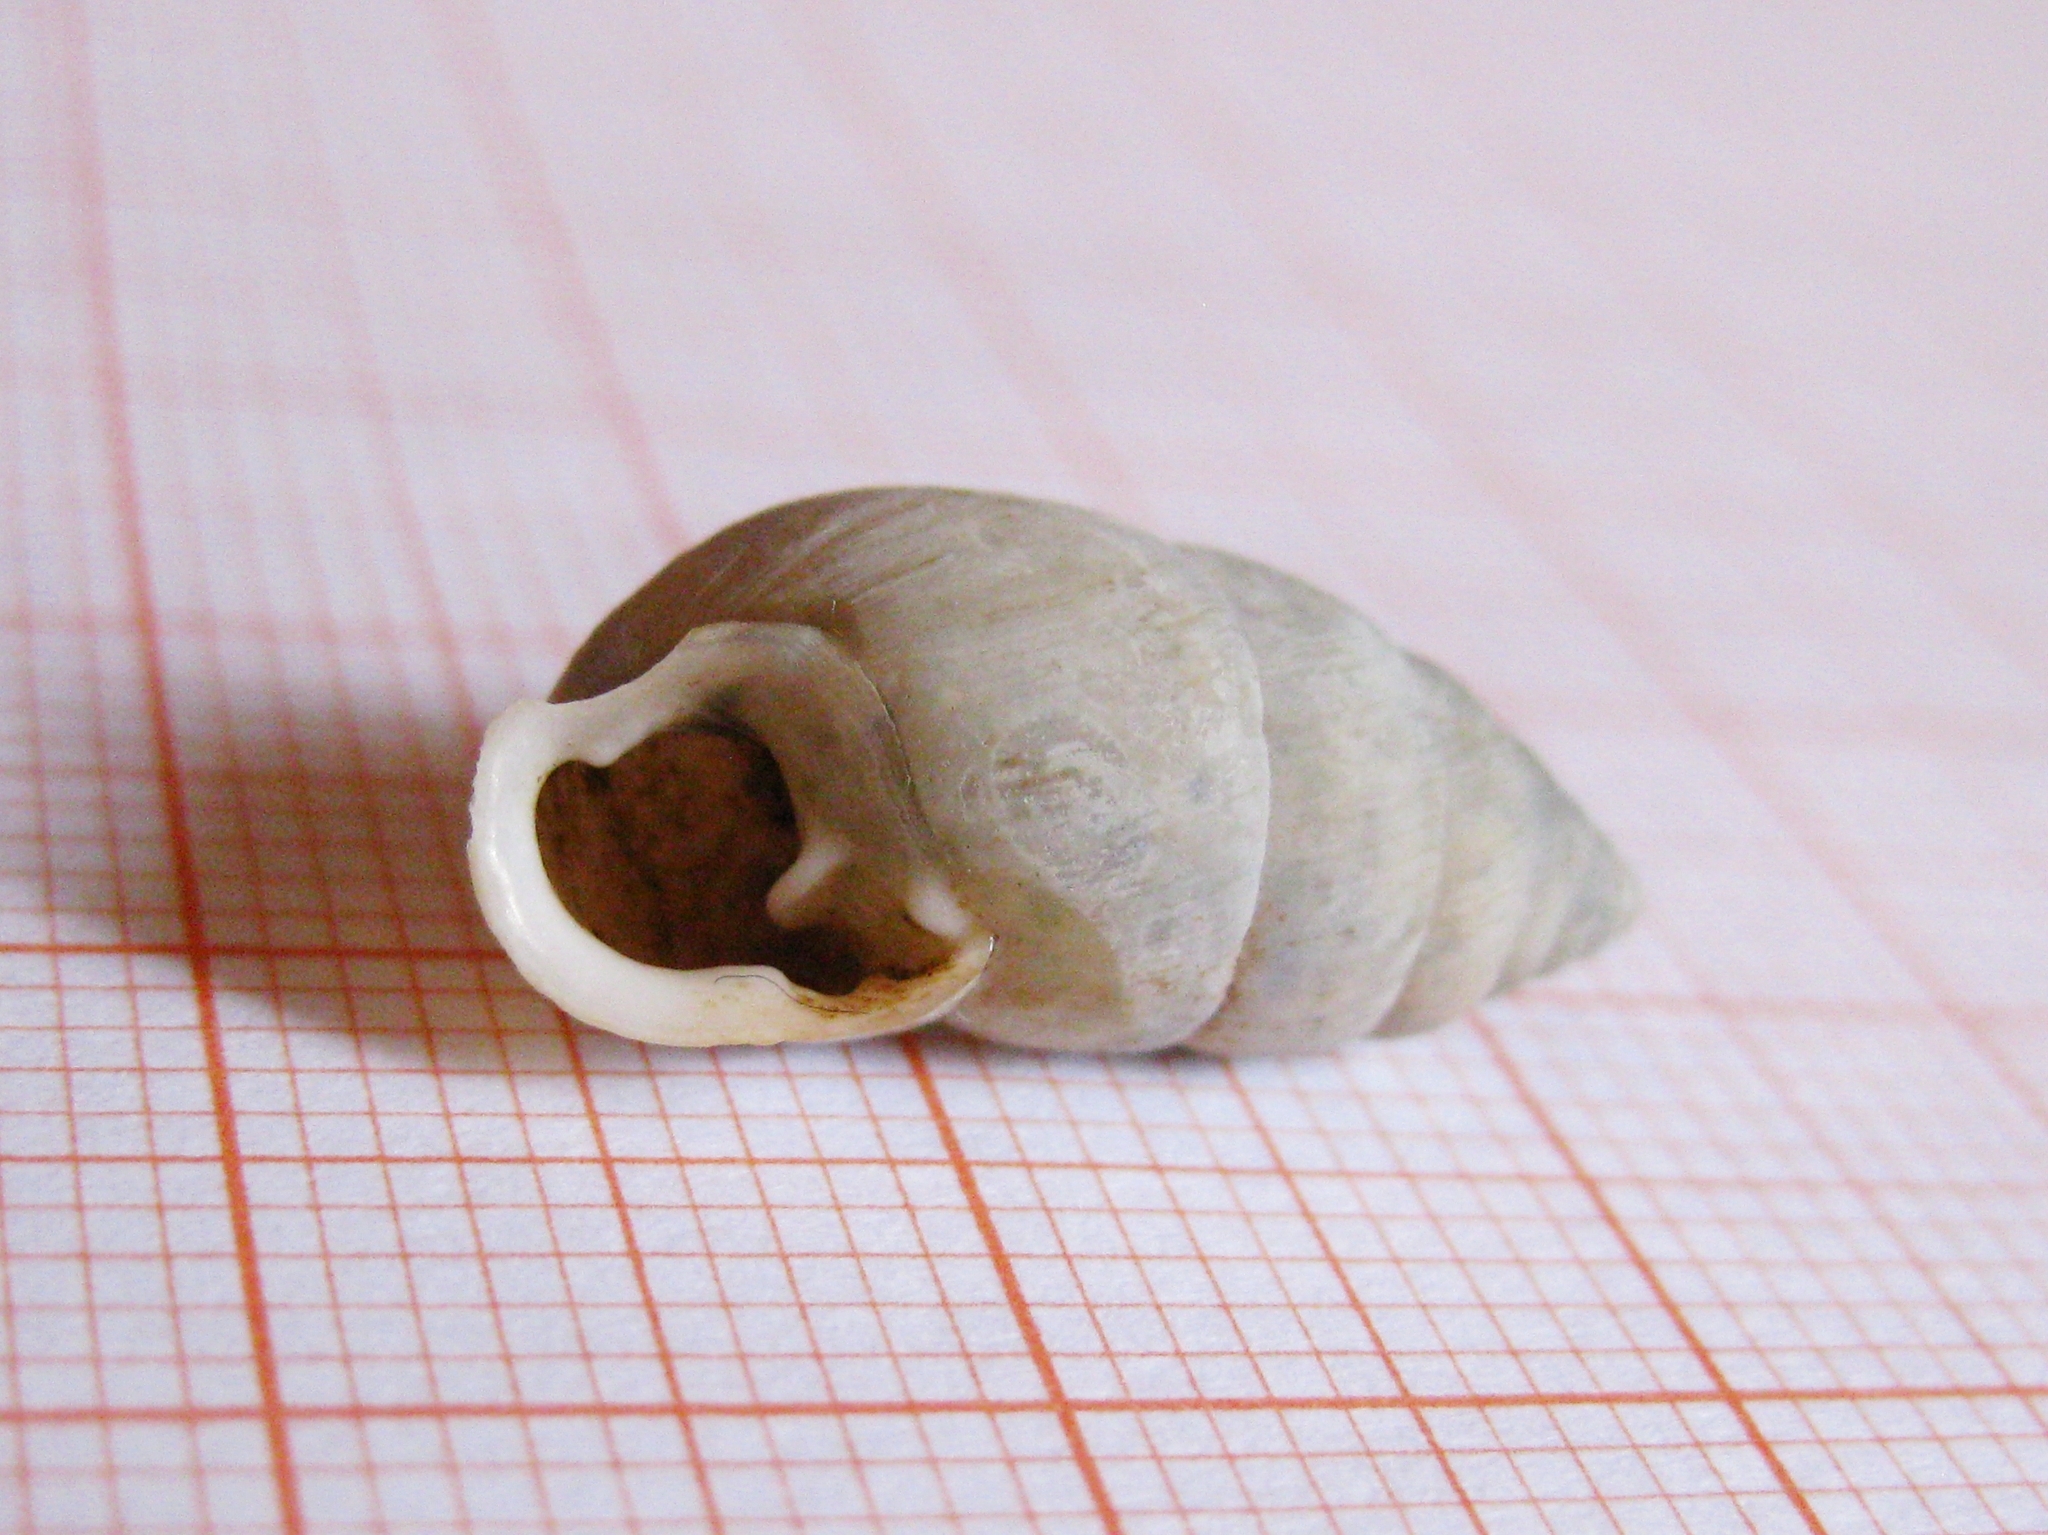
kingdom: Animalia
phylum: Mollusca
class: Gastropoda
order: Stylommatophora
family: Enidae
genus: Chondrula
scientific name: Chondrula tridens
